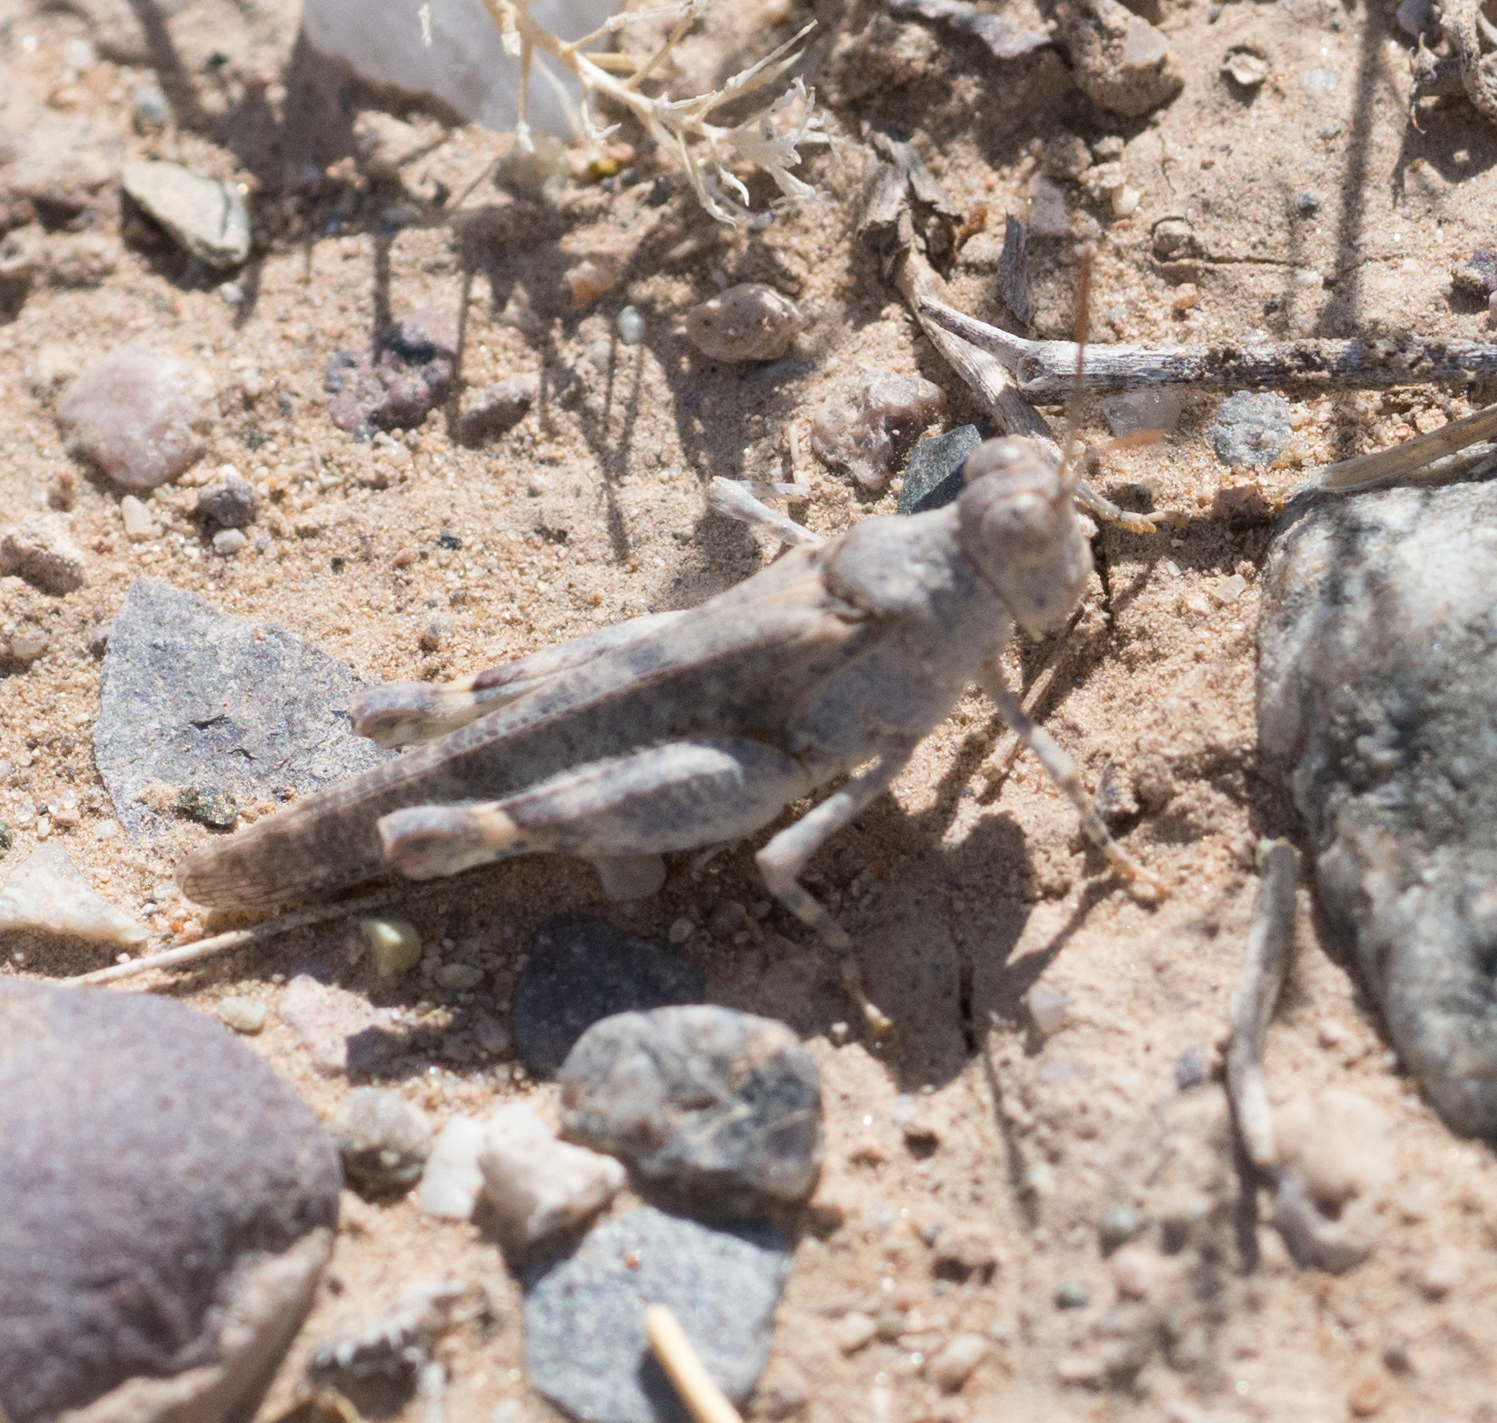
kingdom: Animalia
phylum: Arthropoda
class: Insecta
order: Orthoptera
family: Acrididae
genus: Cibolacris
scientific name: Cibolacris parviceps
